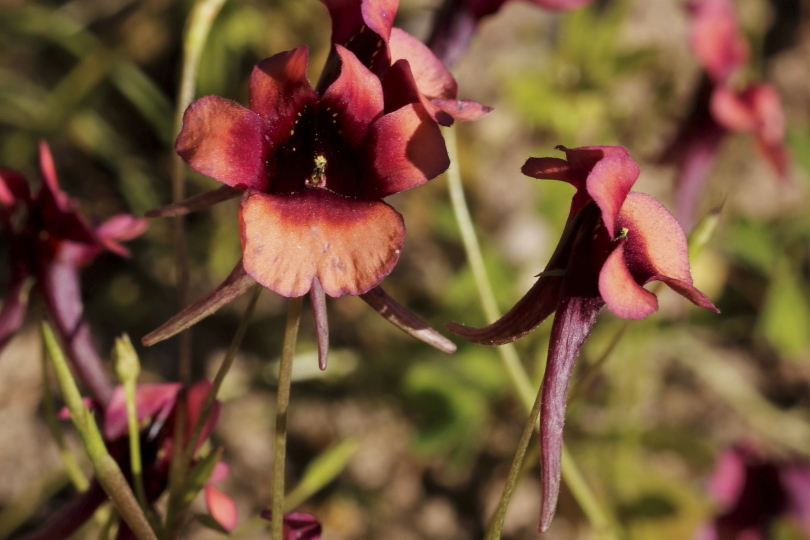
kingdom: Plantae
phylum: Tracheophyta
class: Magnoliopsida
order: Lamiales
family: Scrophulariaceae
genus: Diascia
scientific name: Diascia capensis
